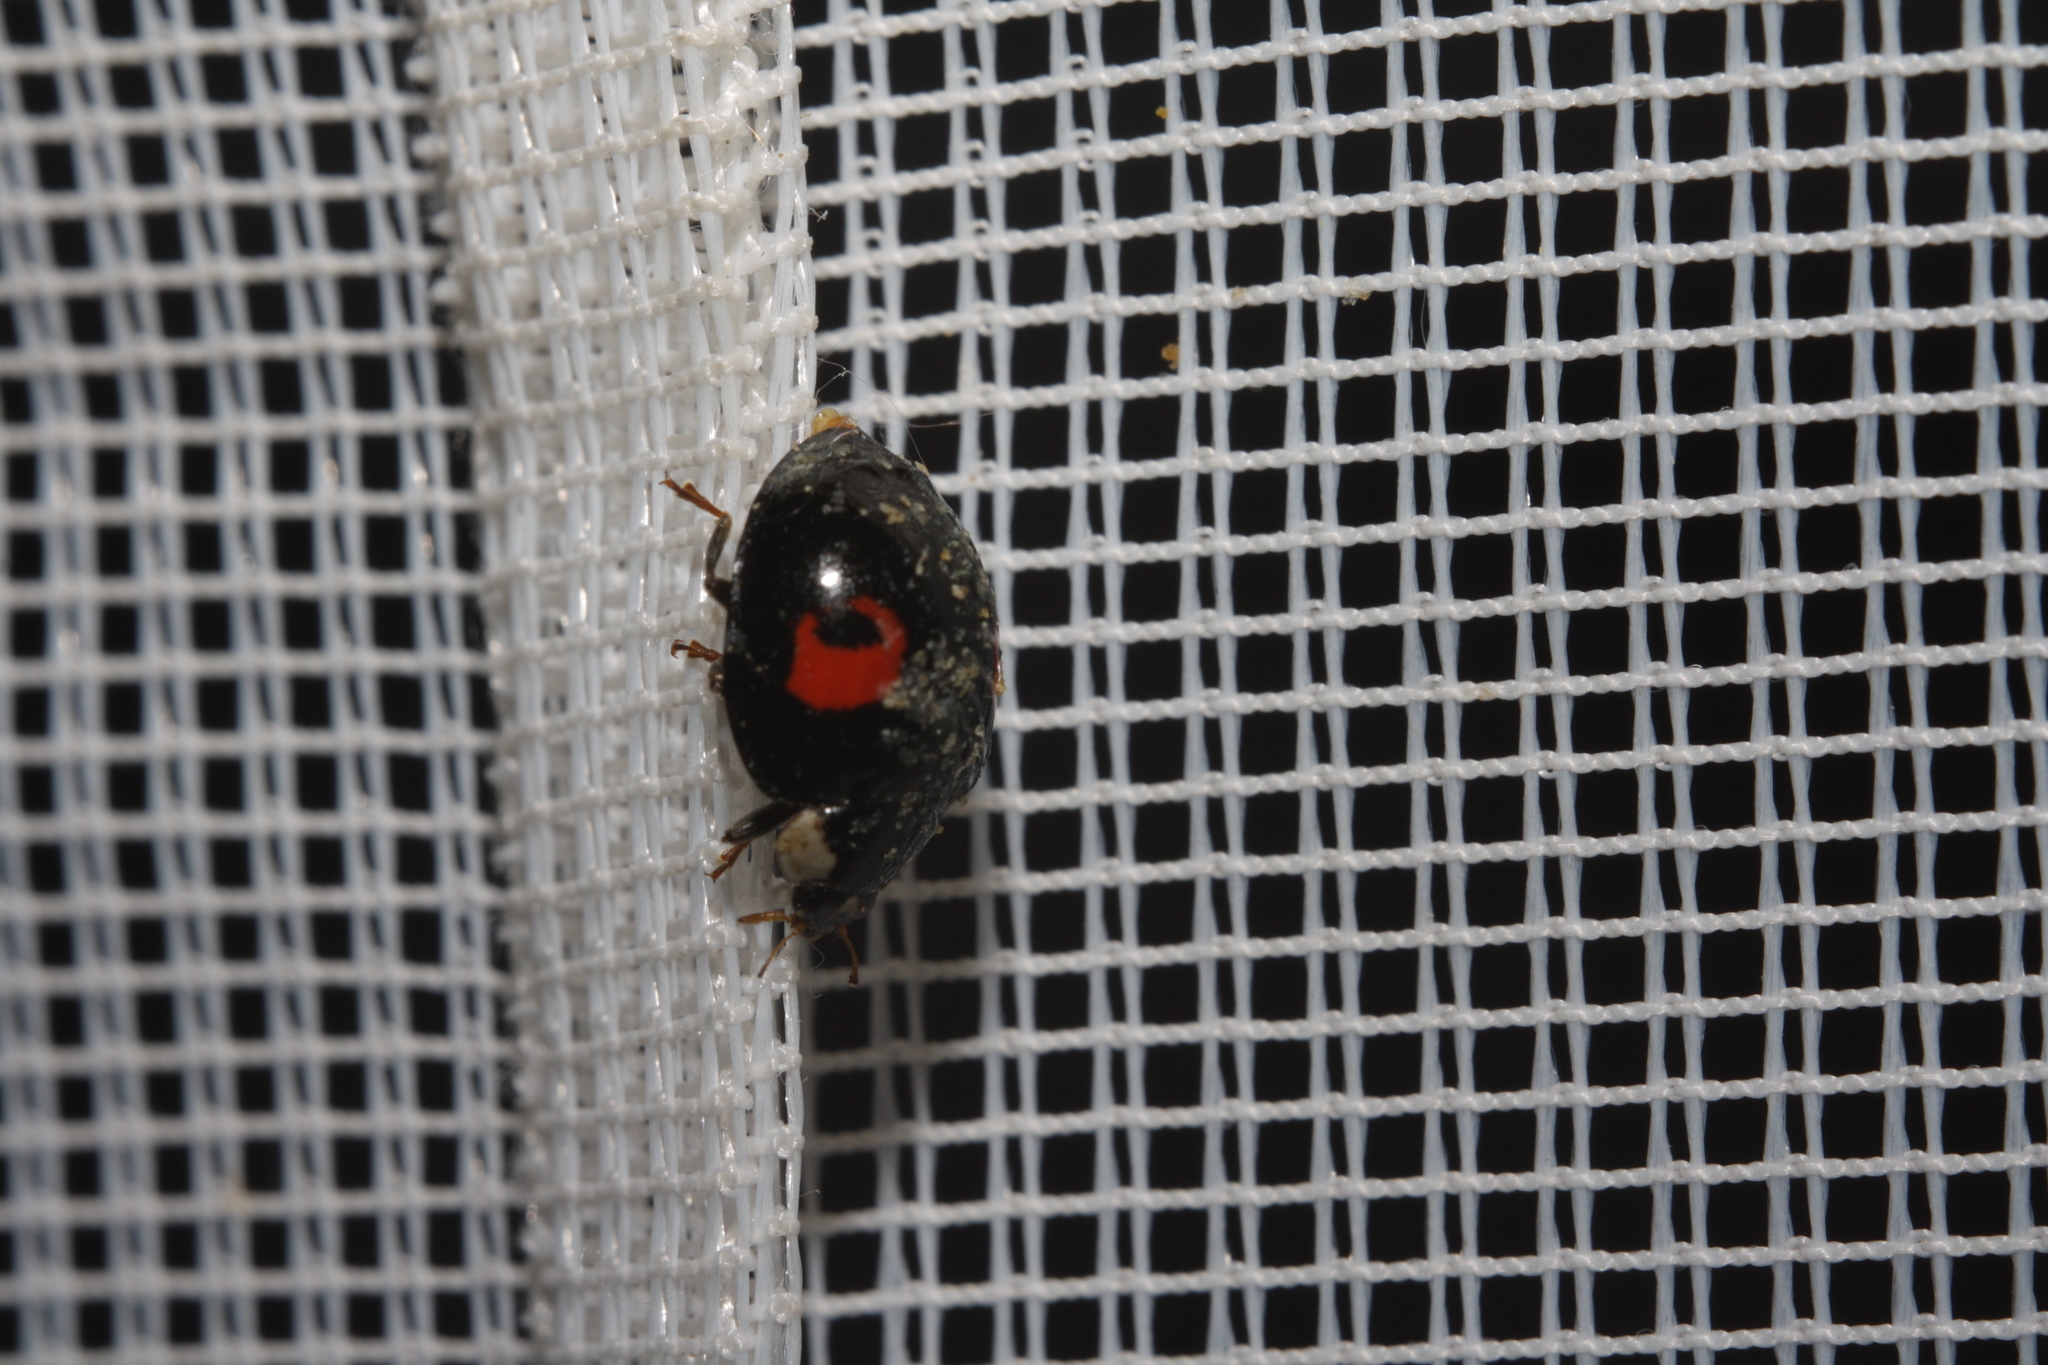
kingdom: Animalia
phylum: Arthropoda
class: Insecta
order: Coleoptera
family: Coccinellidae
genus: Harmonia
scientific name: Harmonia axyridis
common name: Harlequin ladybird
